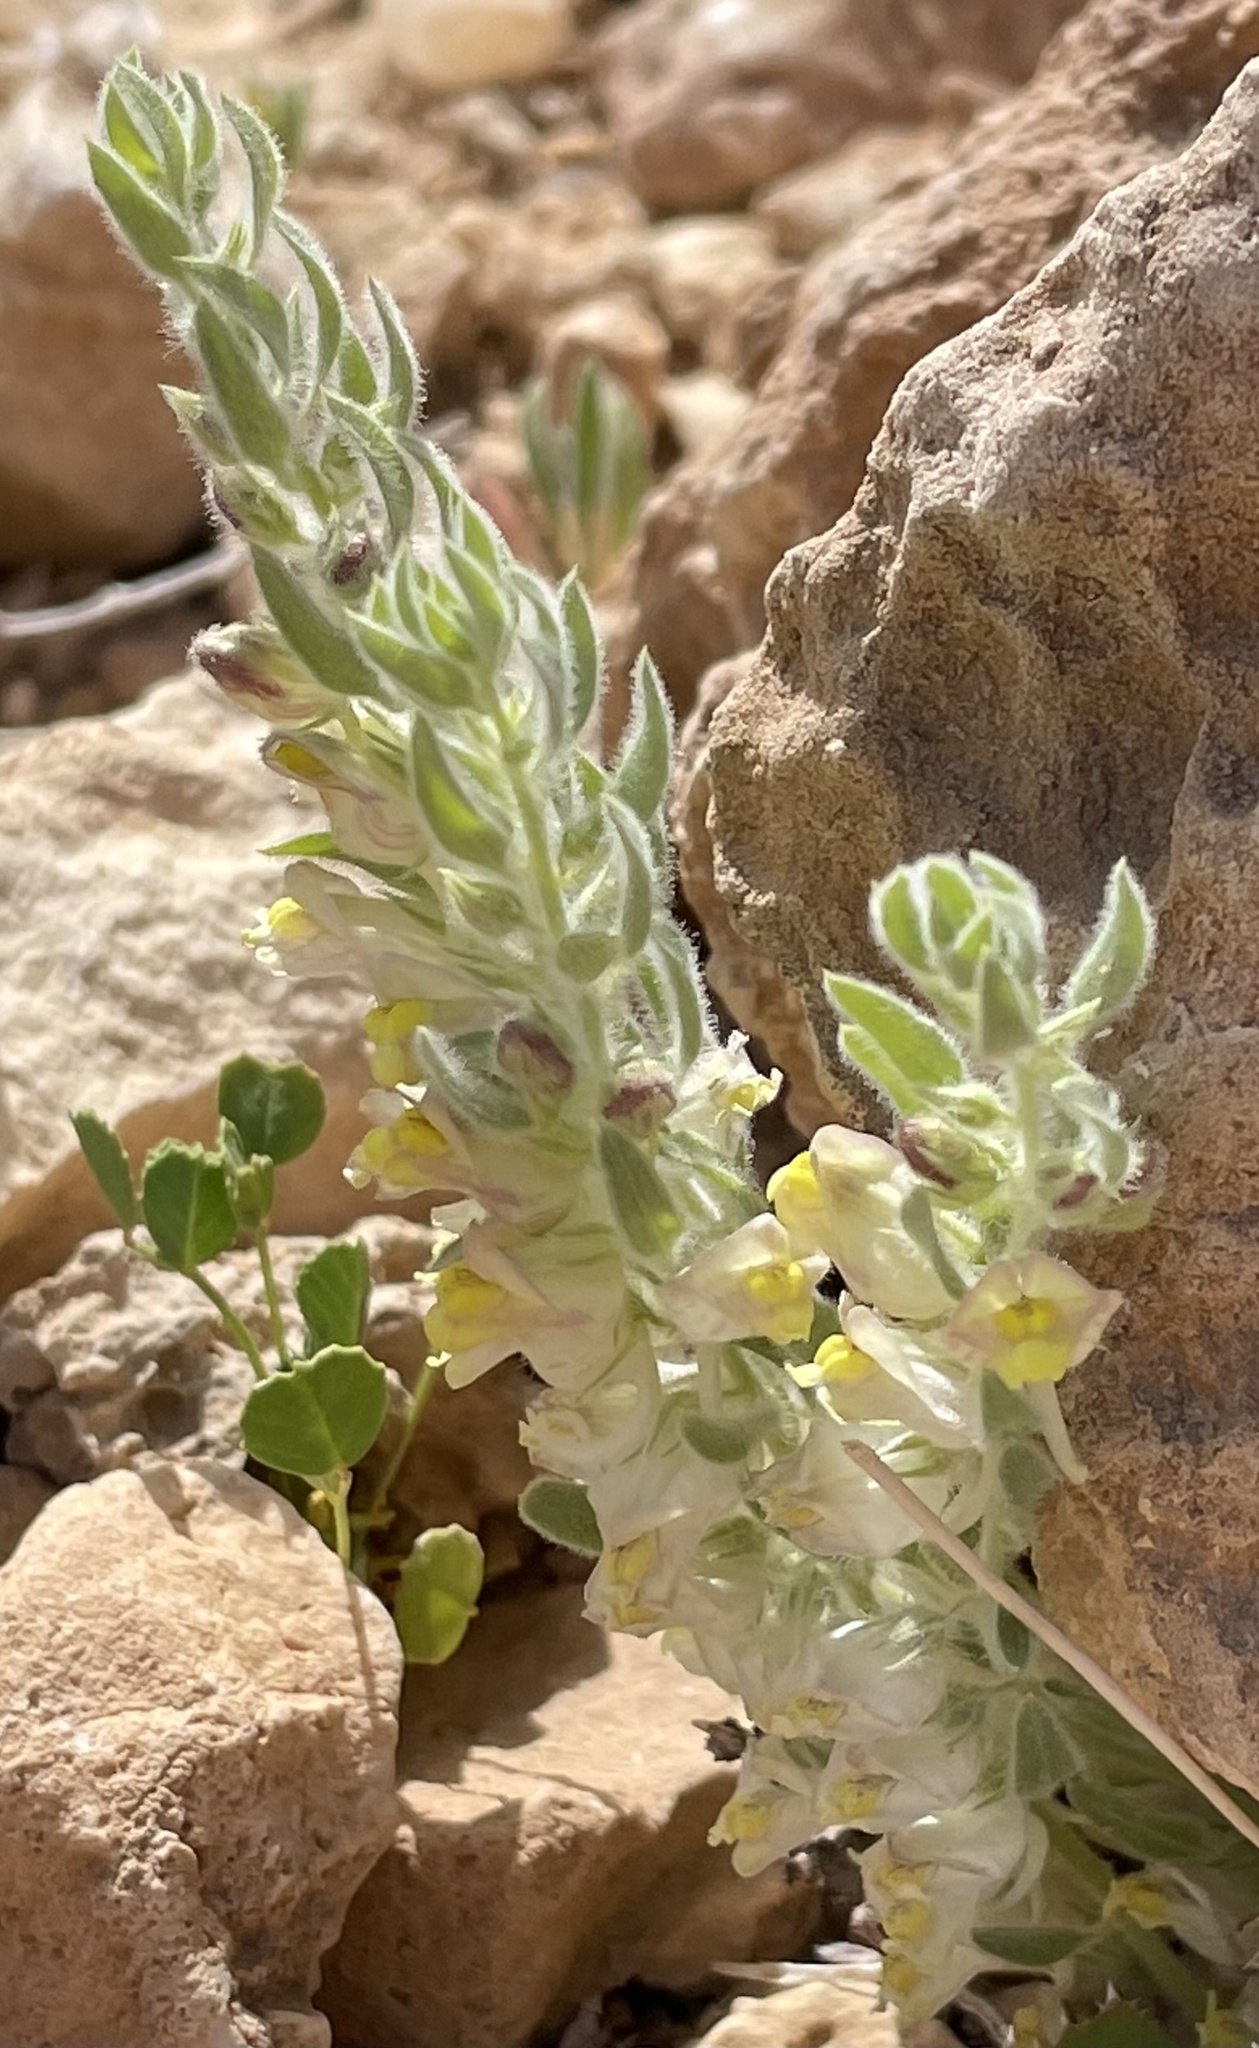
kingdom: Plantae
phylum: Tracheophyta
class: Magnoliopsida
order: Lamiales
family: Plantaginaceae
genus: Kickxia
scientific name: Kickxia floribunda
